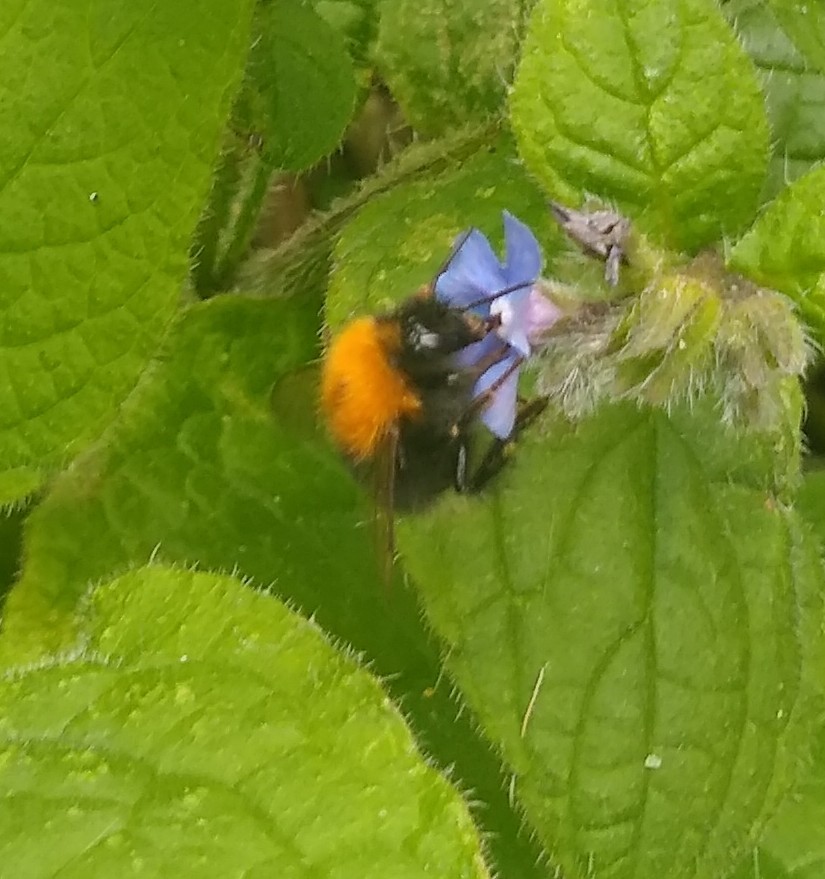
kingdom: Animalia
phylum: Arthropoda
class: Insecta
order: Hymenoptera
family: Apidae
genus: Bombus
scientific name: Bombus hypnorum
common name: New garden bumblebee
